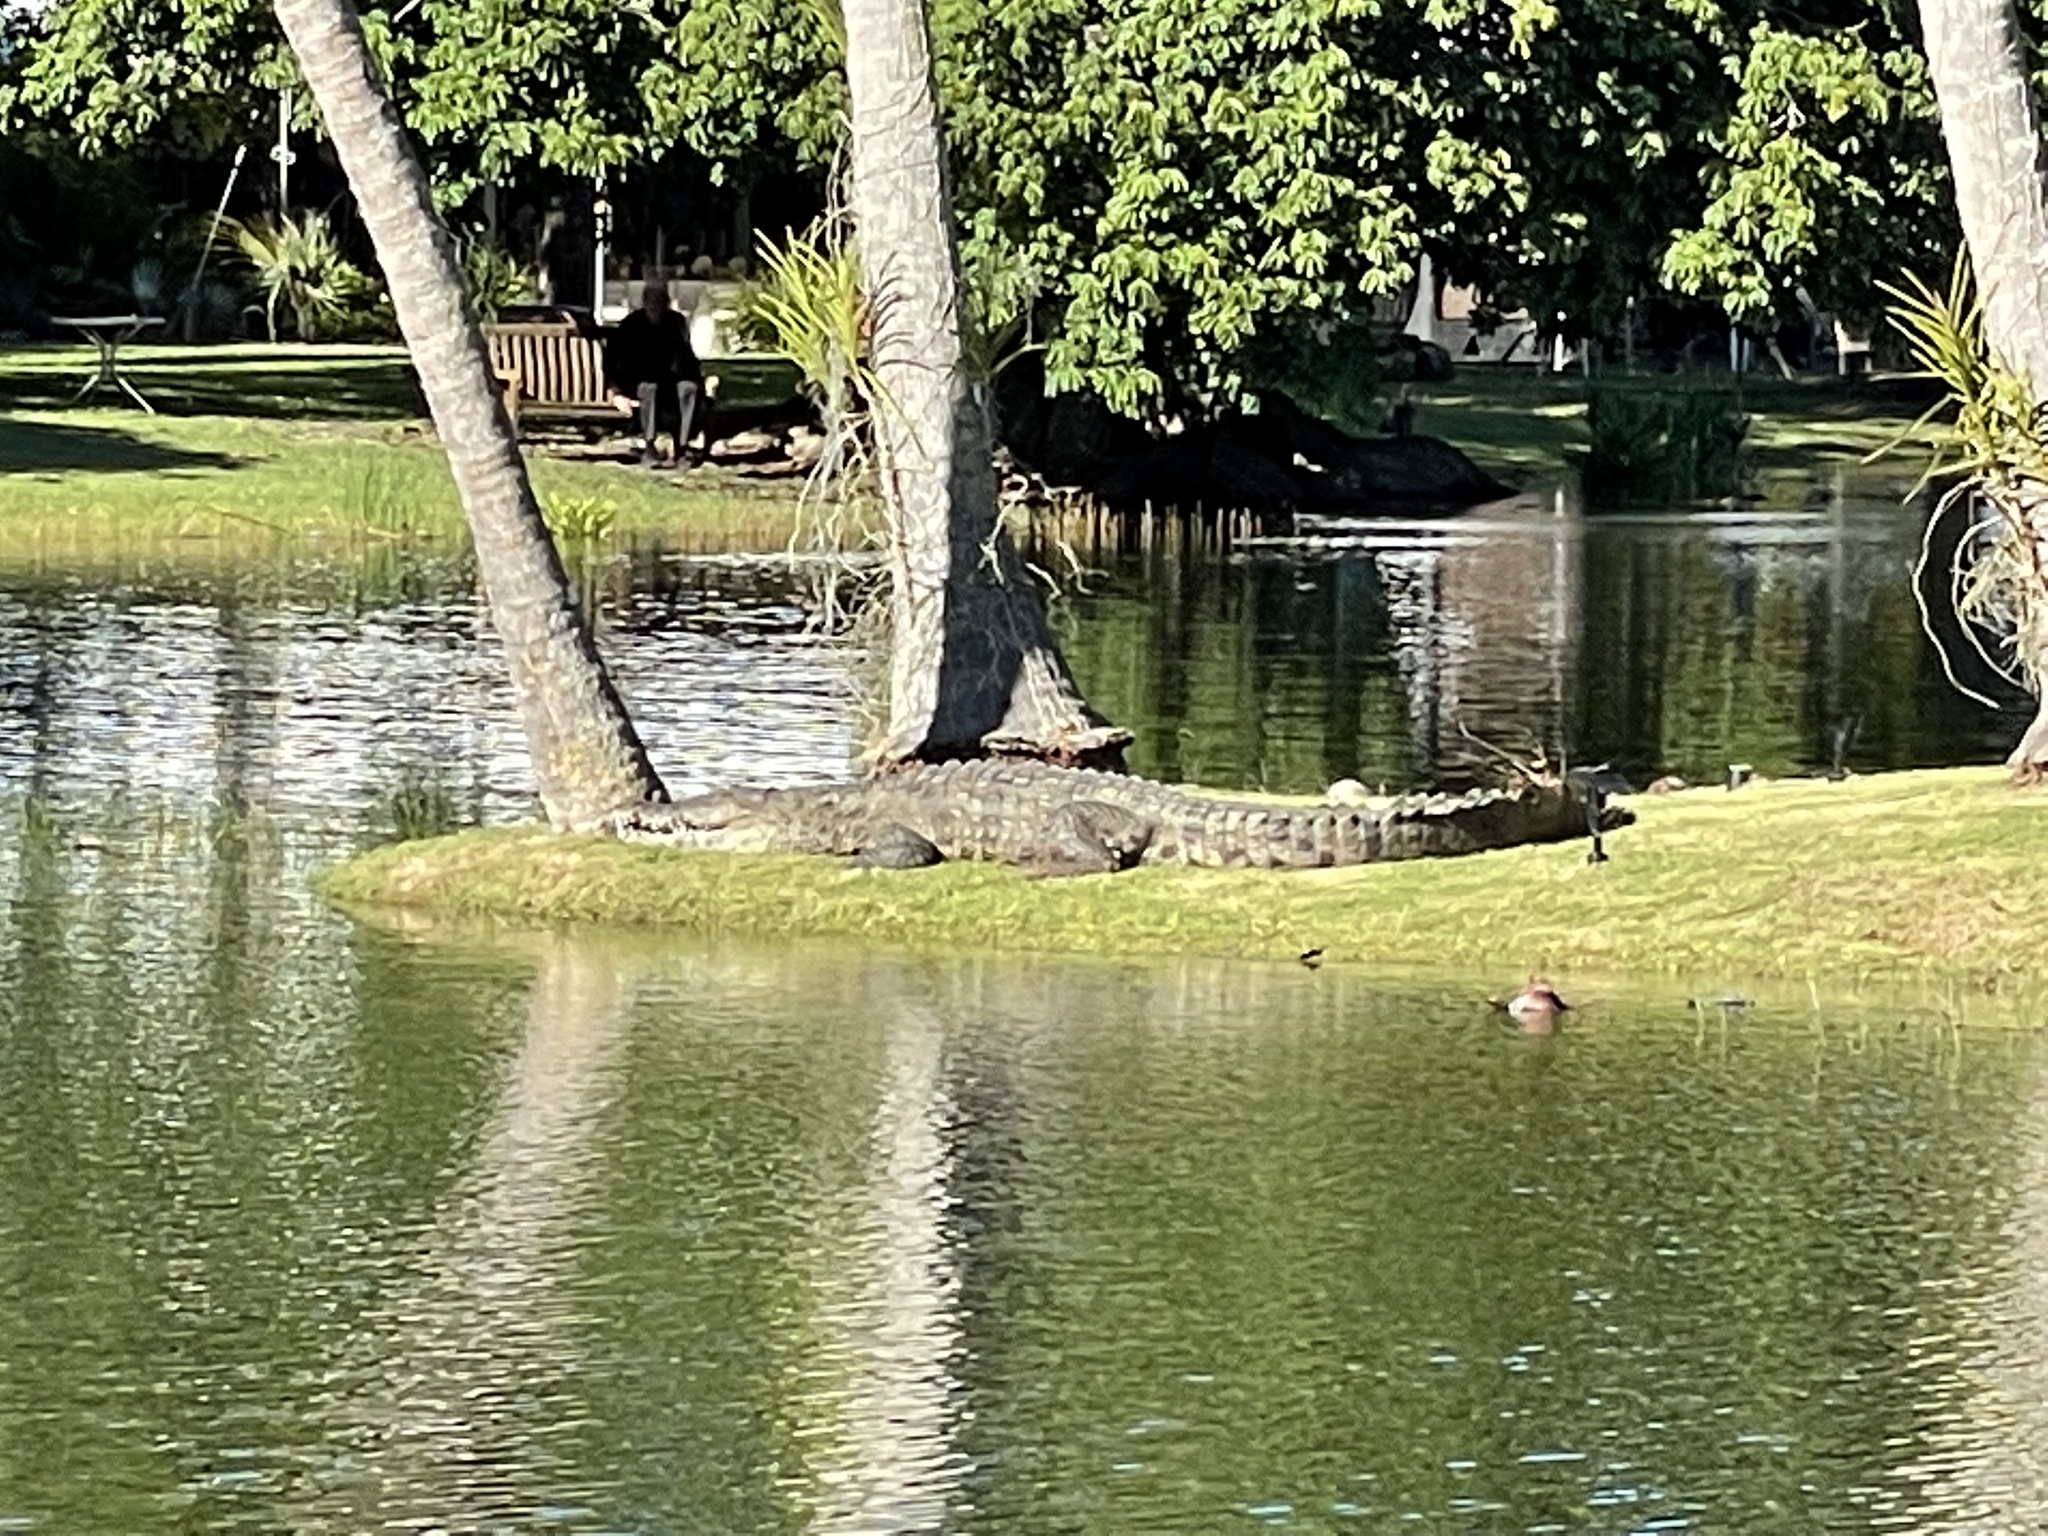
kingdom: Animalia
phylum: Chordata
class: Crocodylia
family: Crocodylidae
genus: Crocodylus
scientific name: Crocodylus acutus
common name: American crocodile
